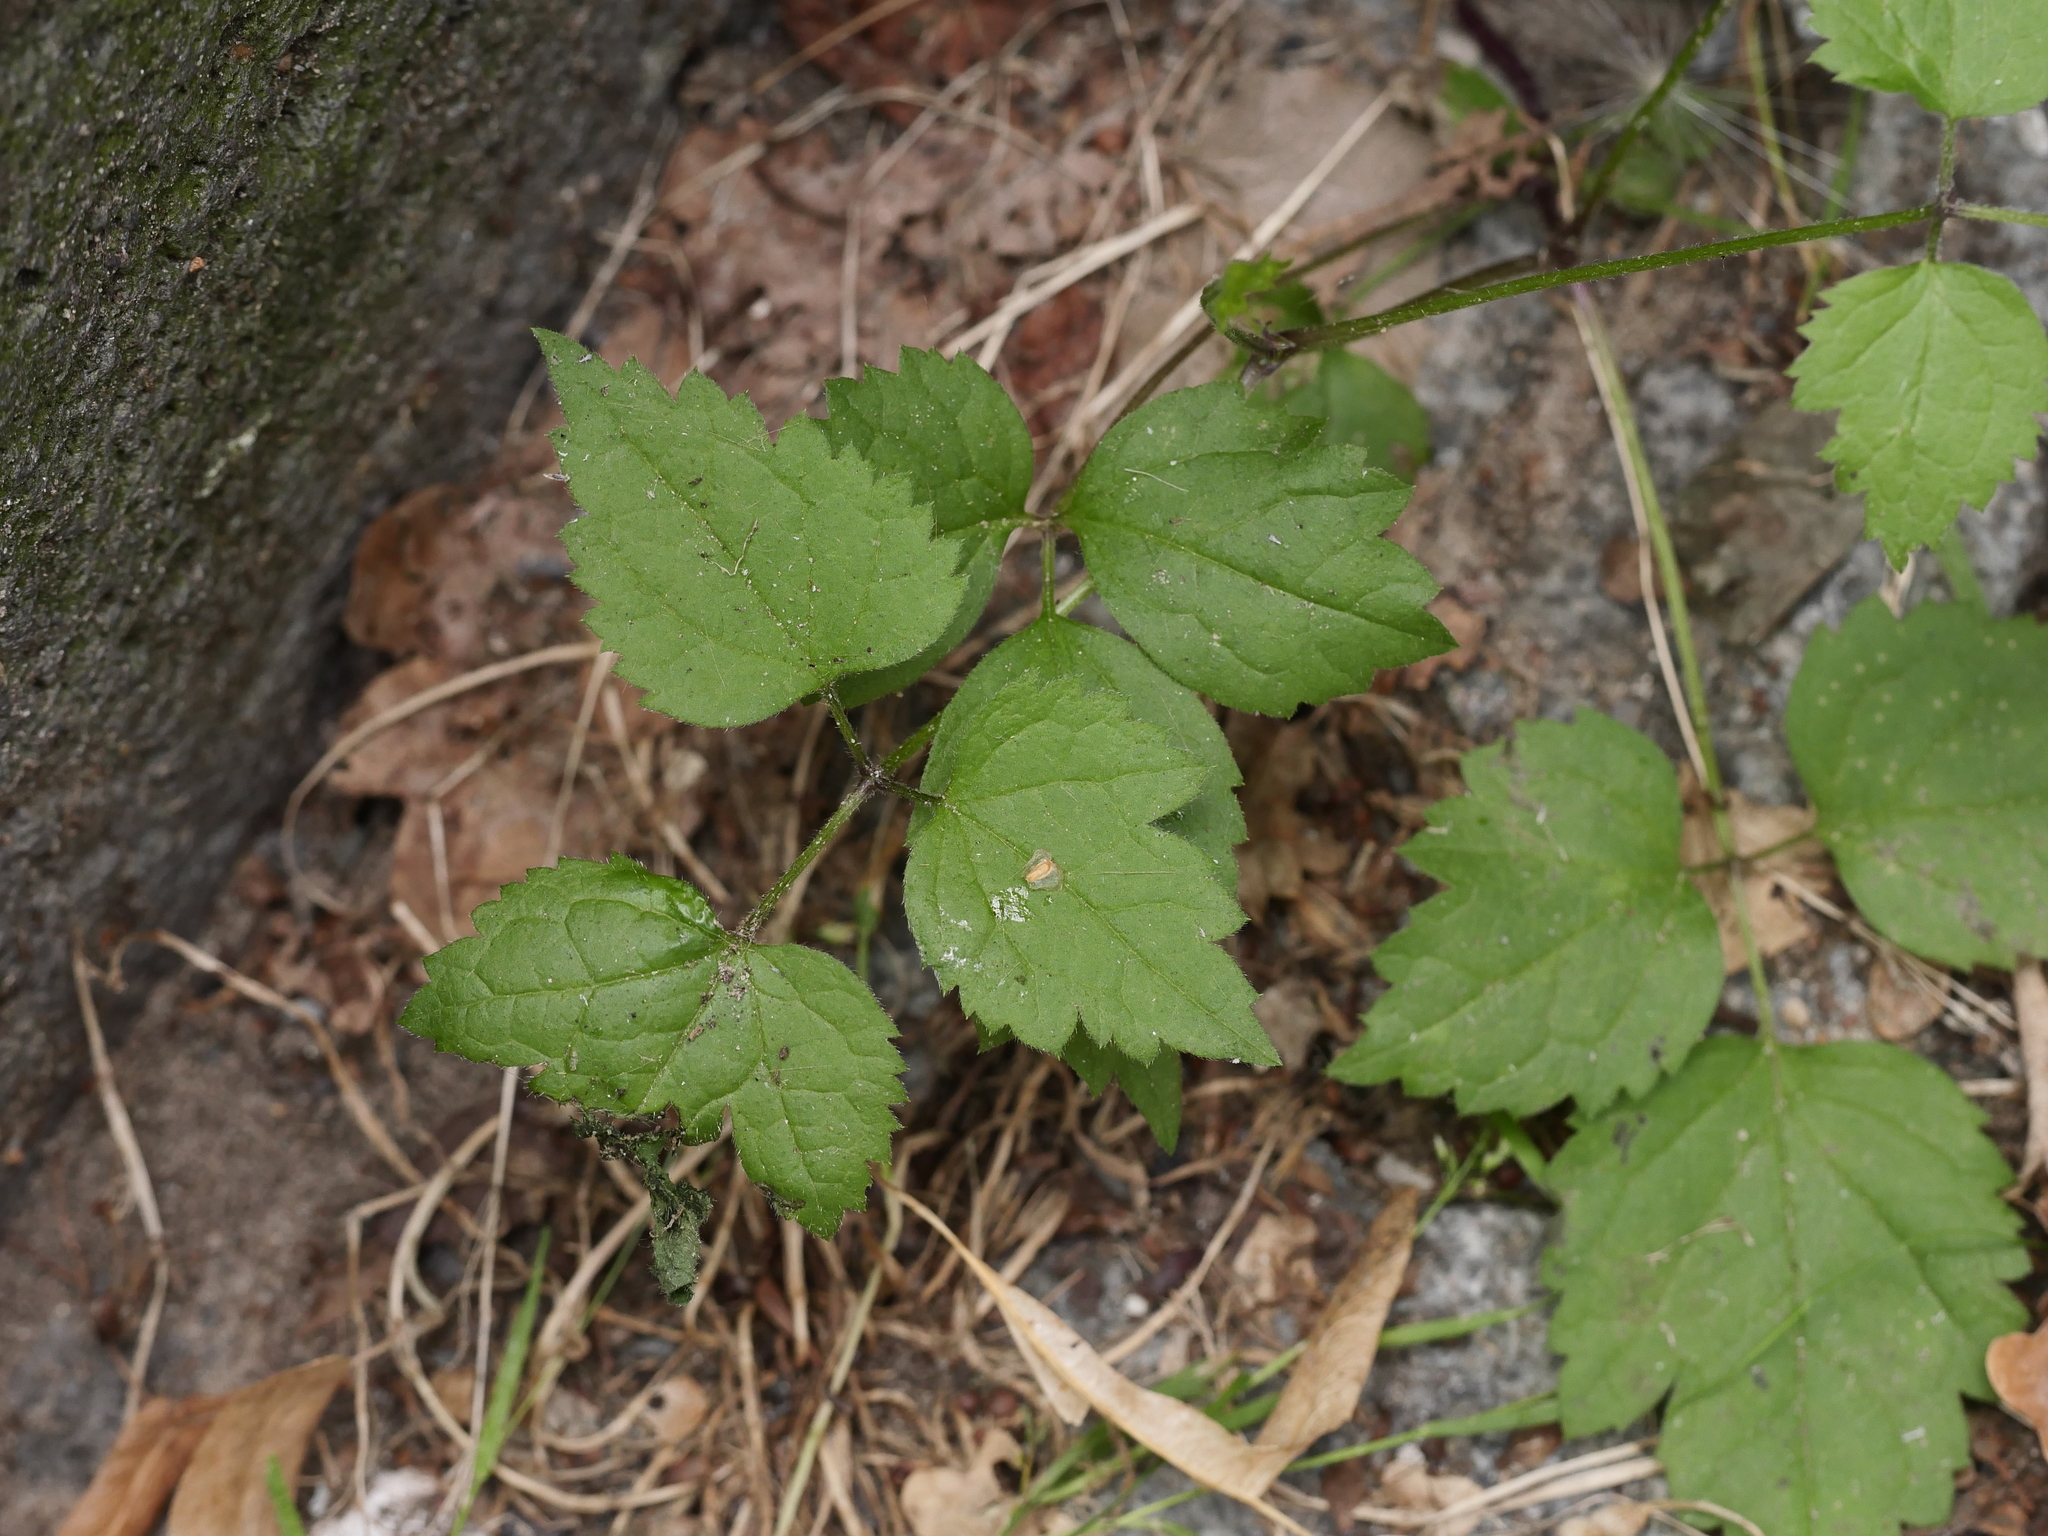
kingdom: Plantae
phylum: Tracheophyta
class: Magnoliopsida
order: Ranunculales
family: Ranunculaceae
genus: Clematis
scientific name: Clematis vitalba
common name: Evergreen clematis
